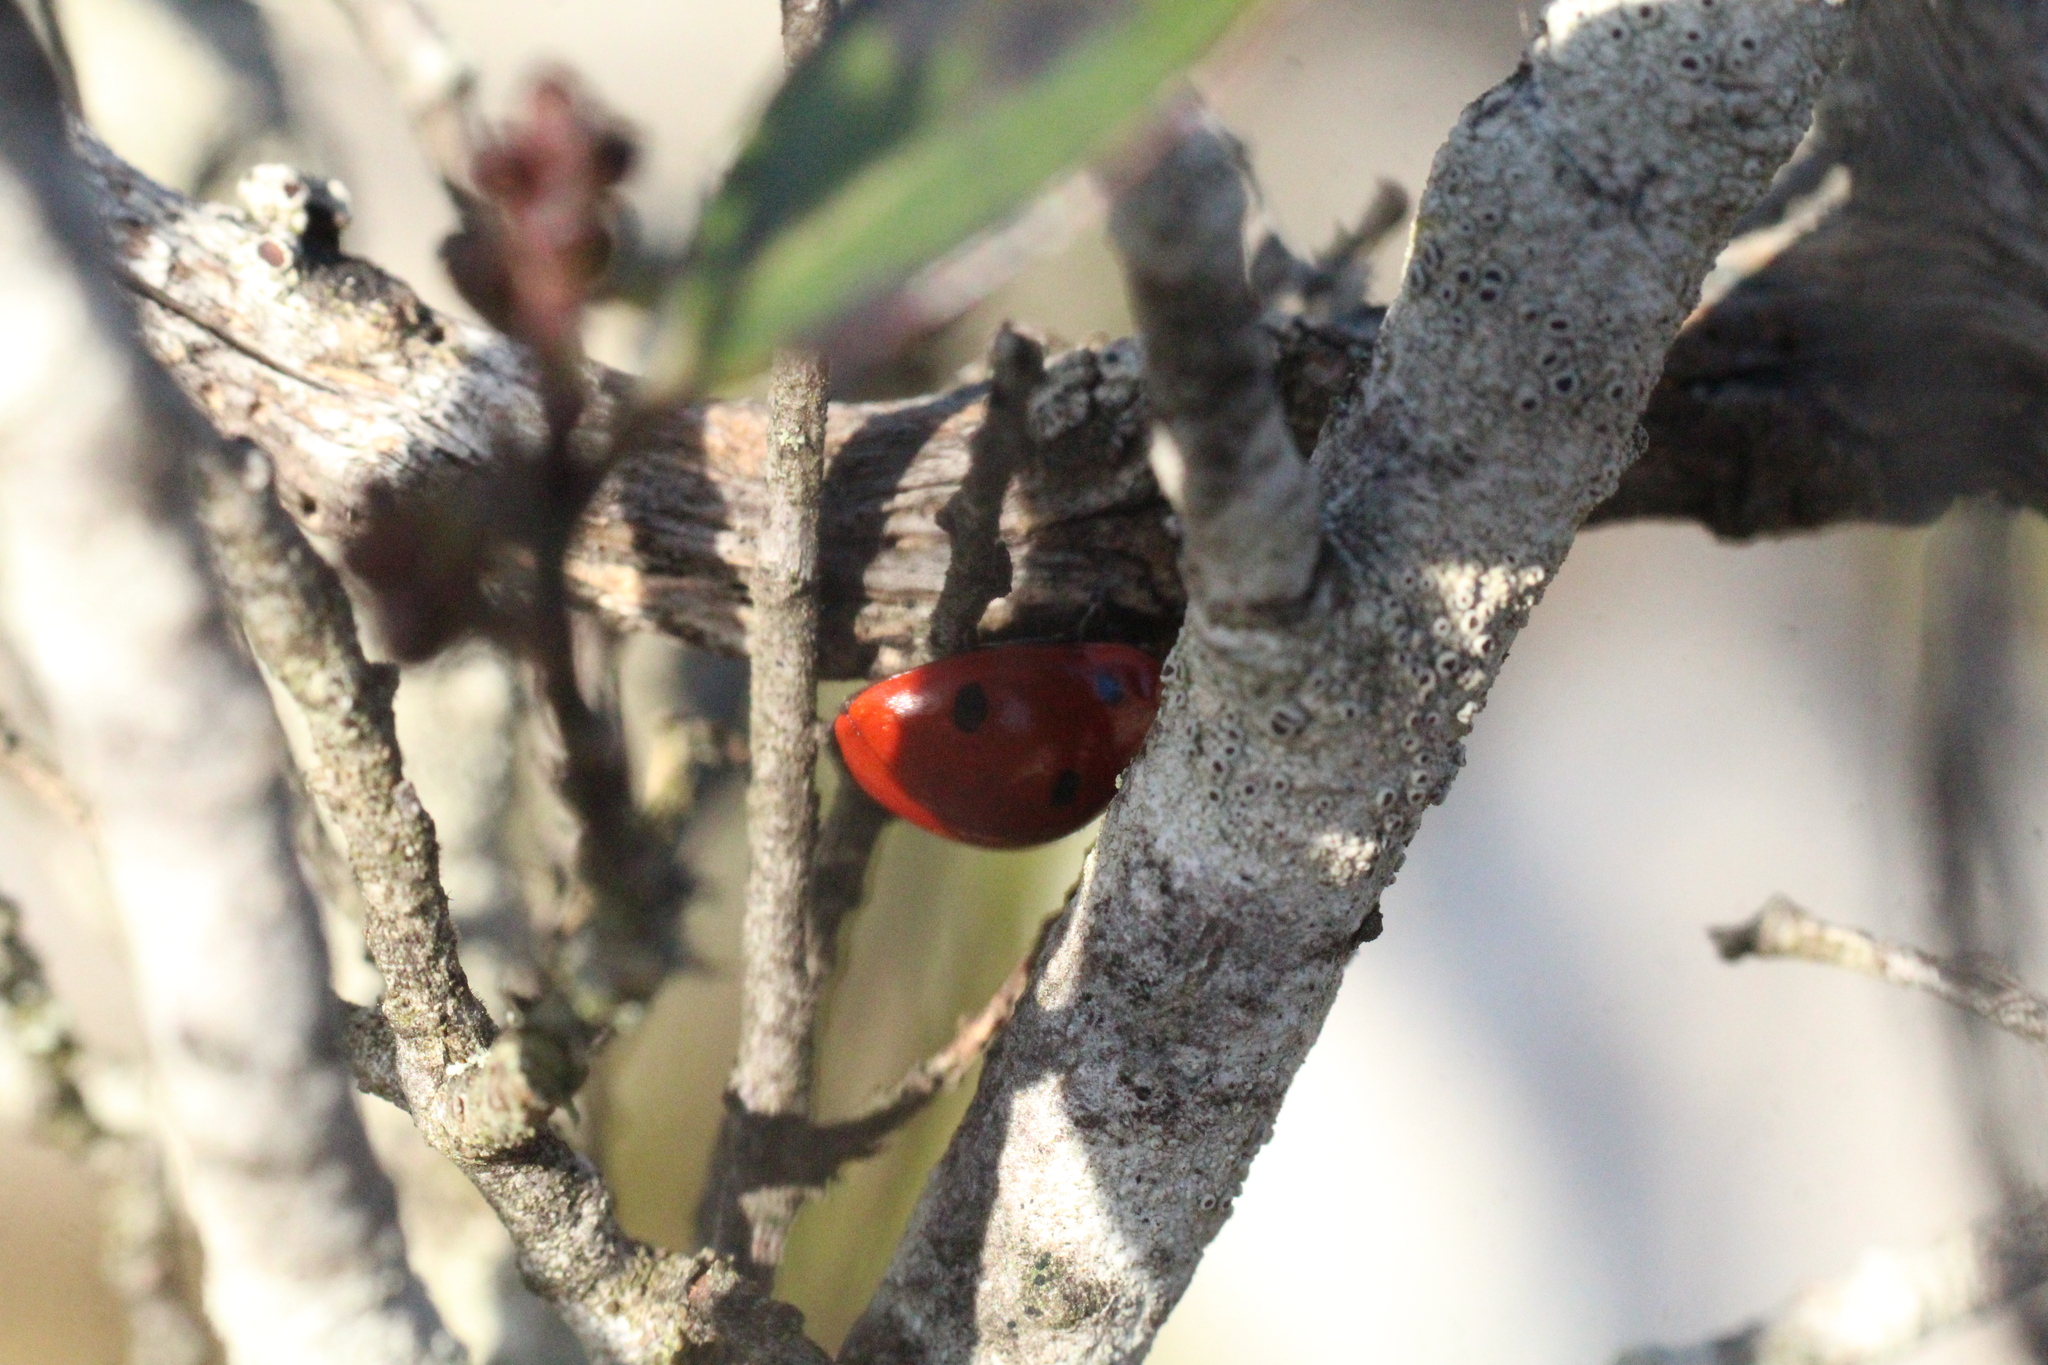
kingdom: Animalia
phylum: Arthropoda
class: Insecta
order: Coleoptera
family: Coccinellidae
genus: Coccinella
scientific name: Coccinella septempunctata
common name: Sevenspotted lady beetle
